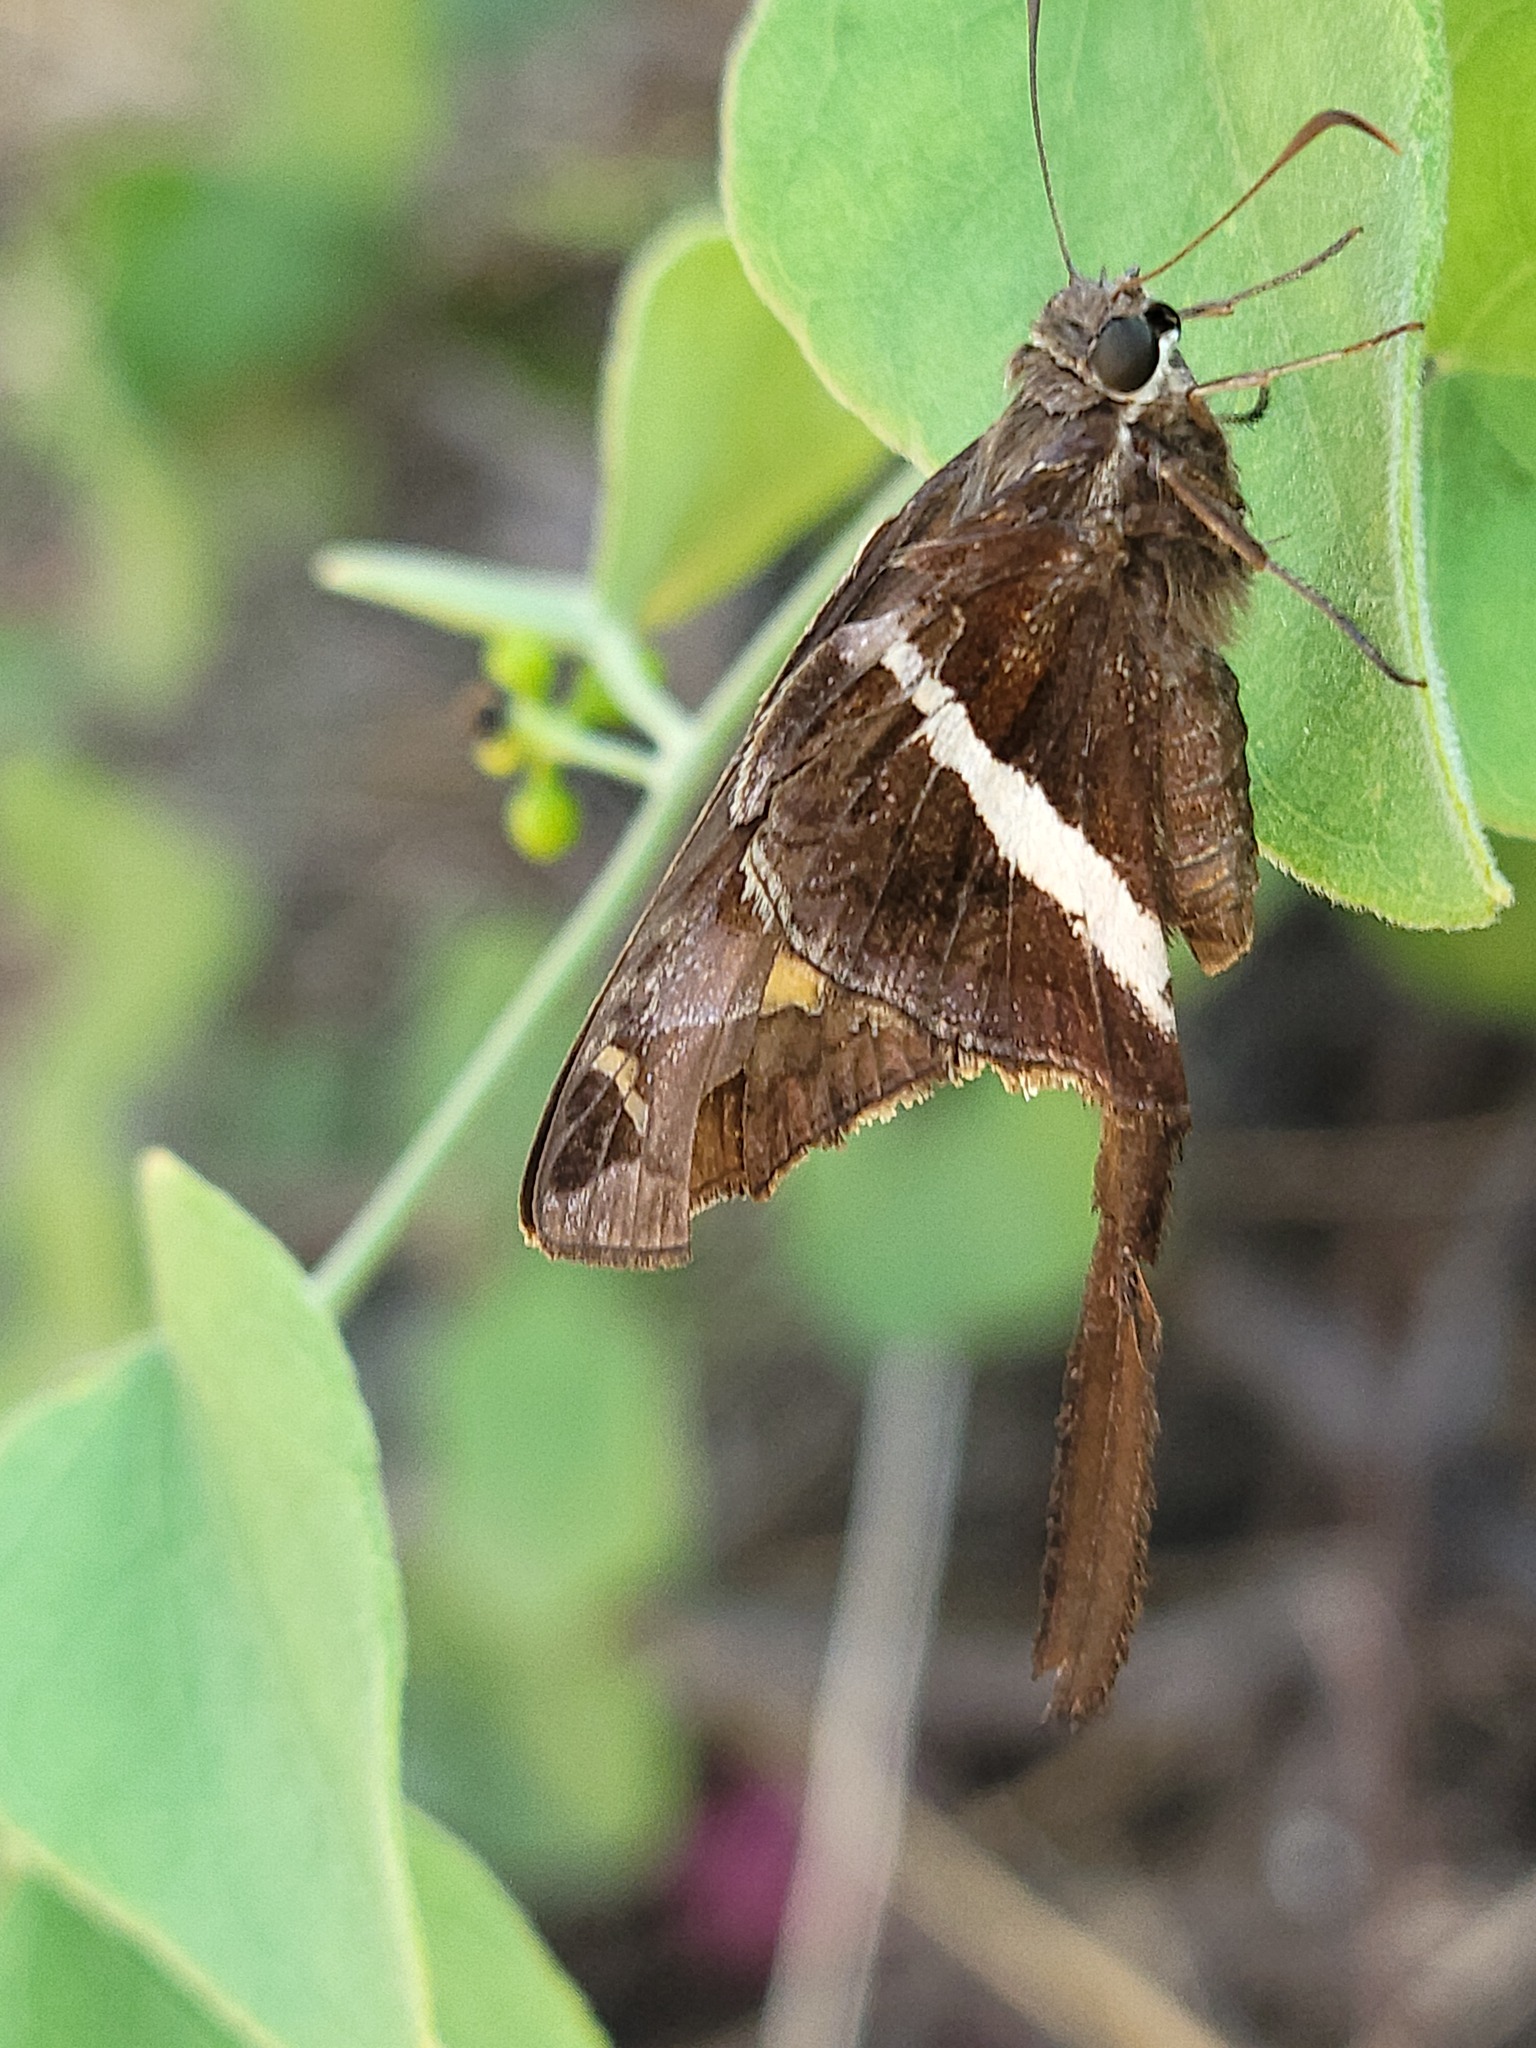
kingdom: Animalia
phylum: Arthropoda
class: Insecta
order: Lepidoptera
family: Hesperiidae
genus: Chioides
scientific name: Chioides catillus
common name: Silverbanded skipper
